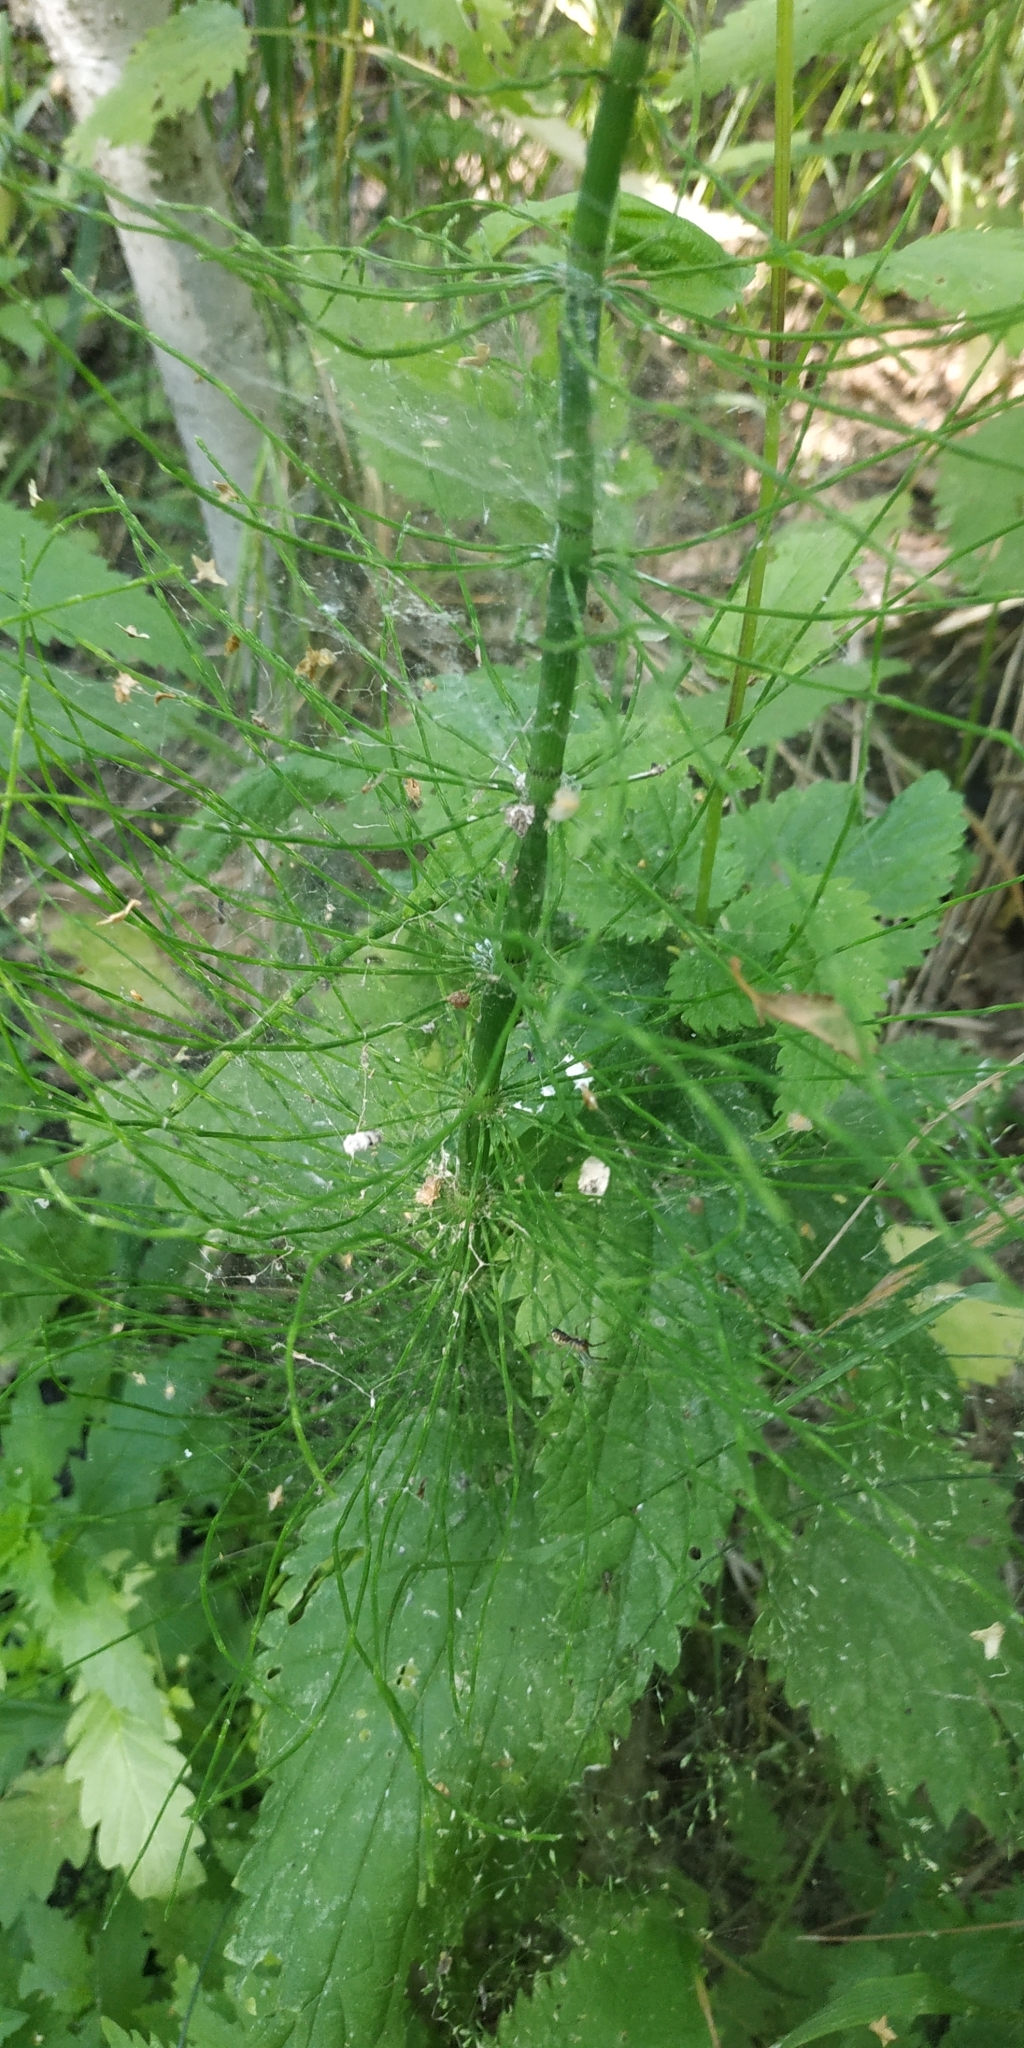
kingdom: Plantae
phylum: Tracheophyta
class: Polypodiopsida
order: Equisetales
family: Equisetaceae
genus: Equisetum
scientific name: Equisetum fluviatile
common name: Water horsetail
